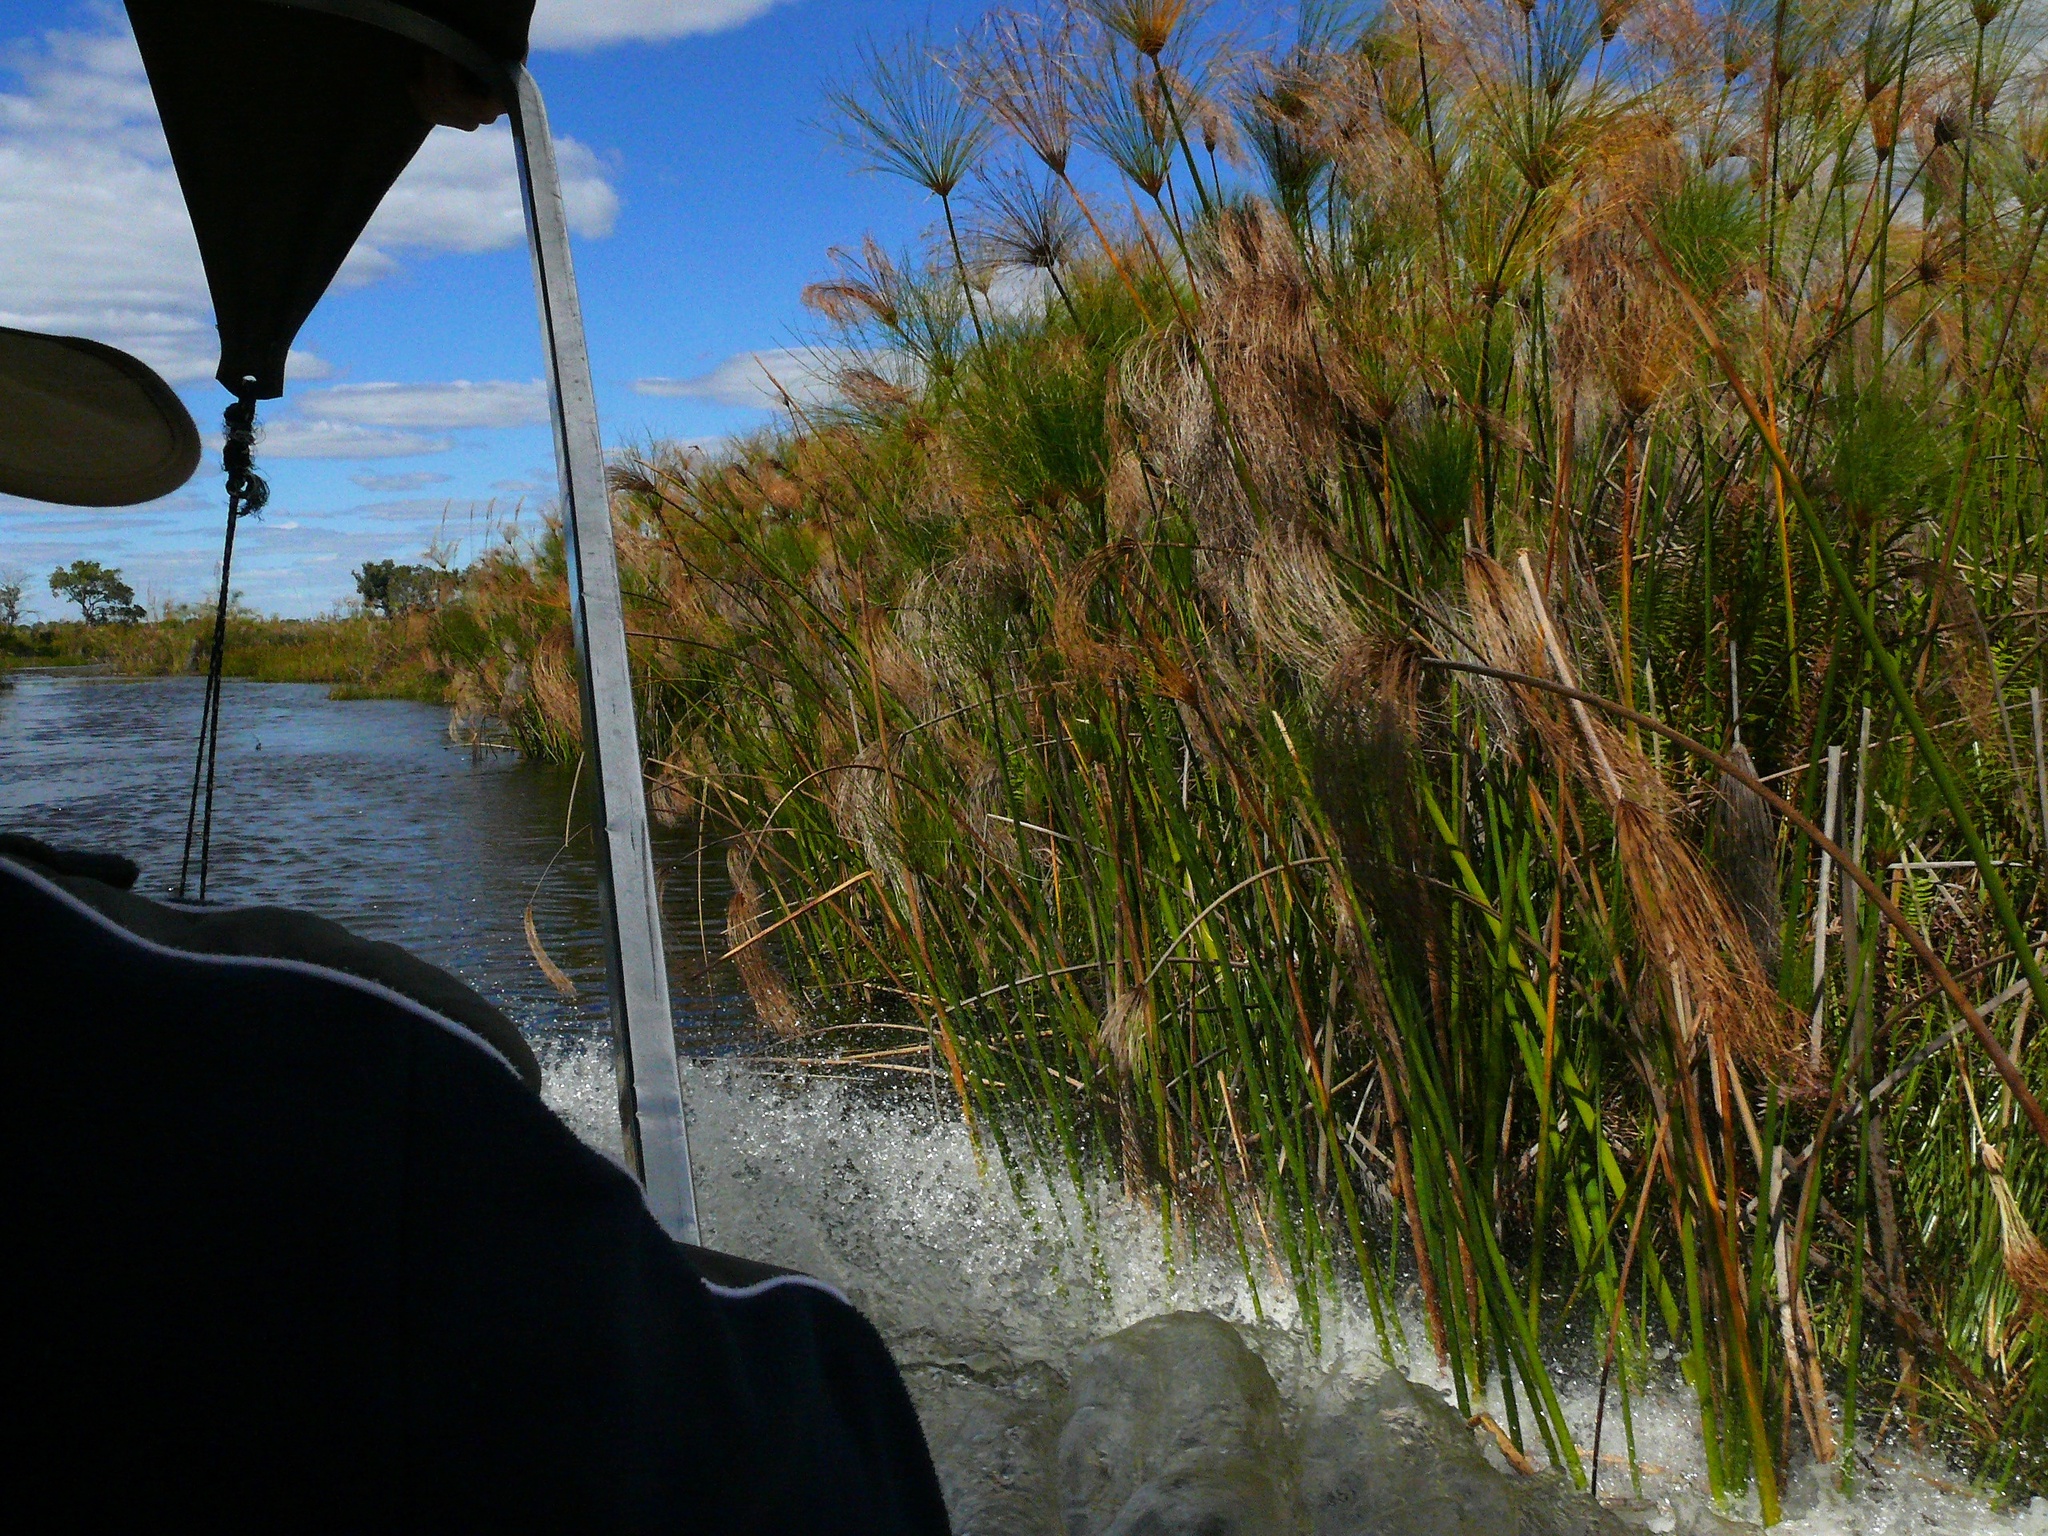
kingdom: Plantae
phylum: Tracheophyta
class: Liliopsida
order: Poales
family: Cyperaceae
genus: Cyperus
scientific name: Cyperus papyrus
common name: Papyrus
